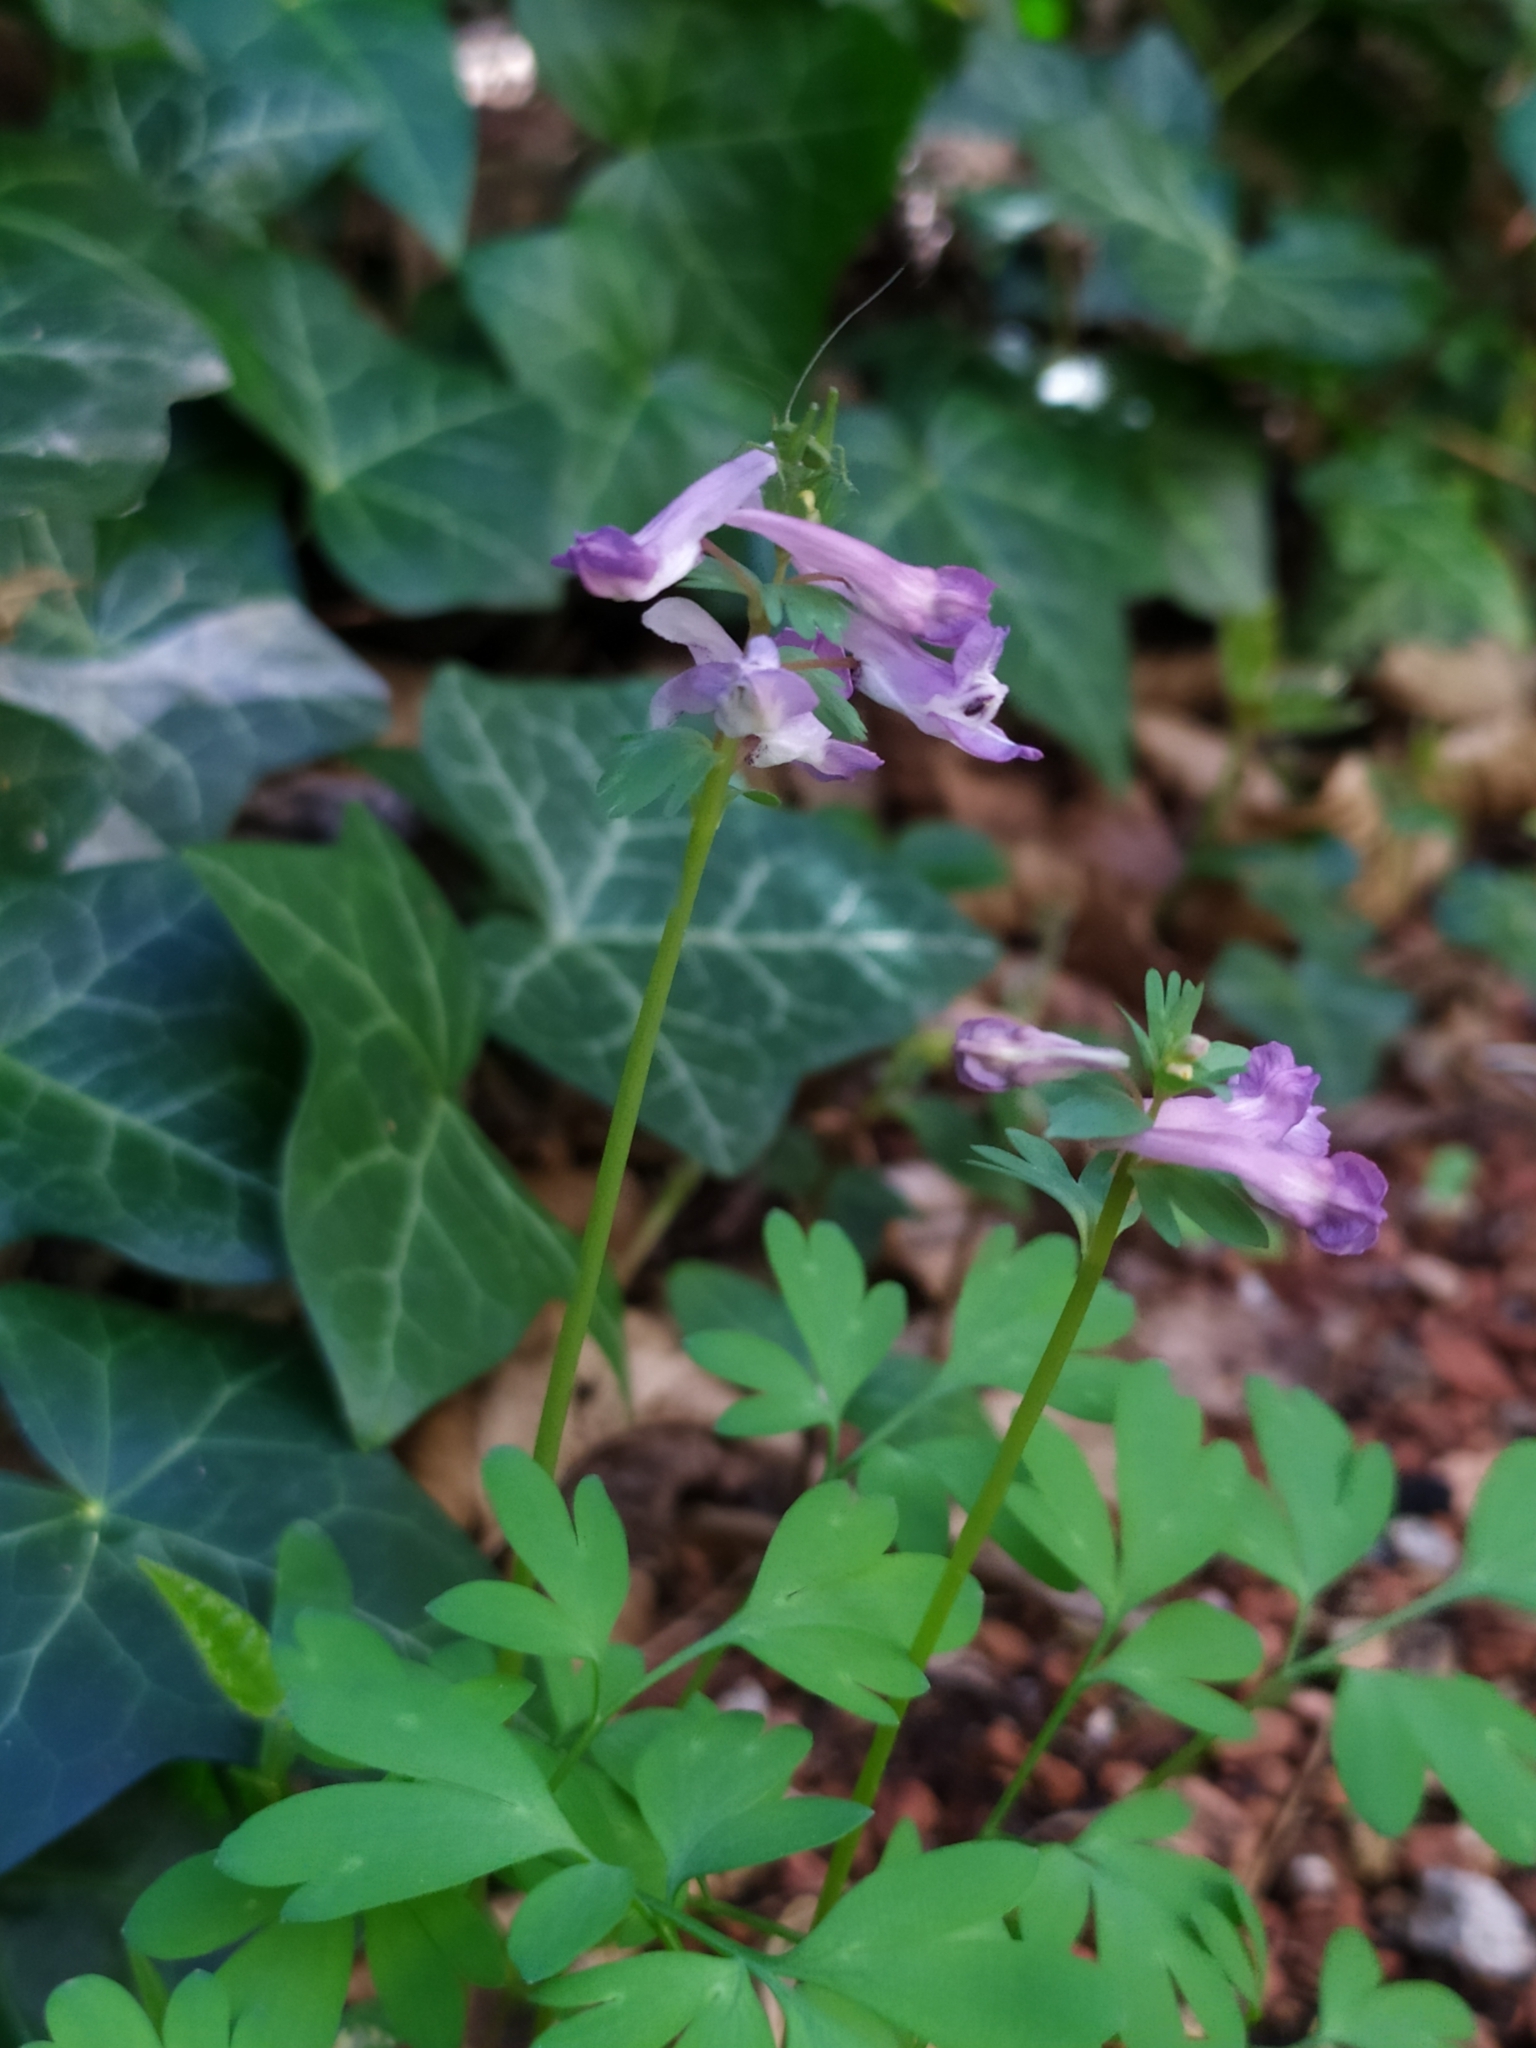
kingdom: Animalia
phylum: Arthropoda
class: Insecta
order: Orthoptera
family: Tettigoniidae
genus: Tettigonia
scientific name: Tettigonia viridissima
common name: Great green bush-cricket
